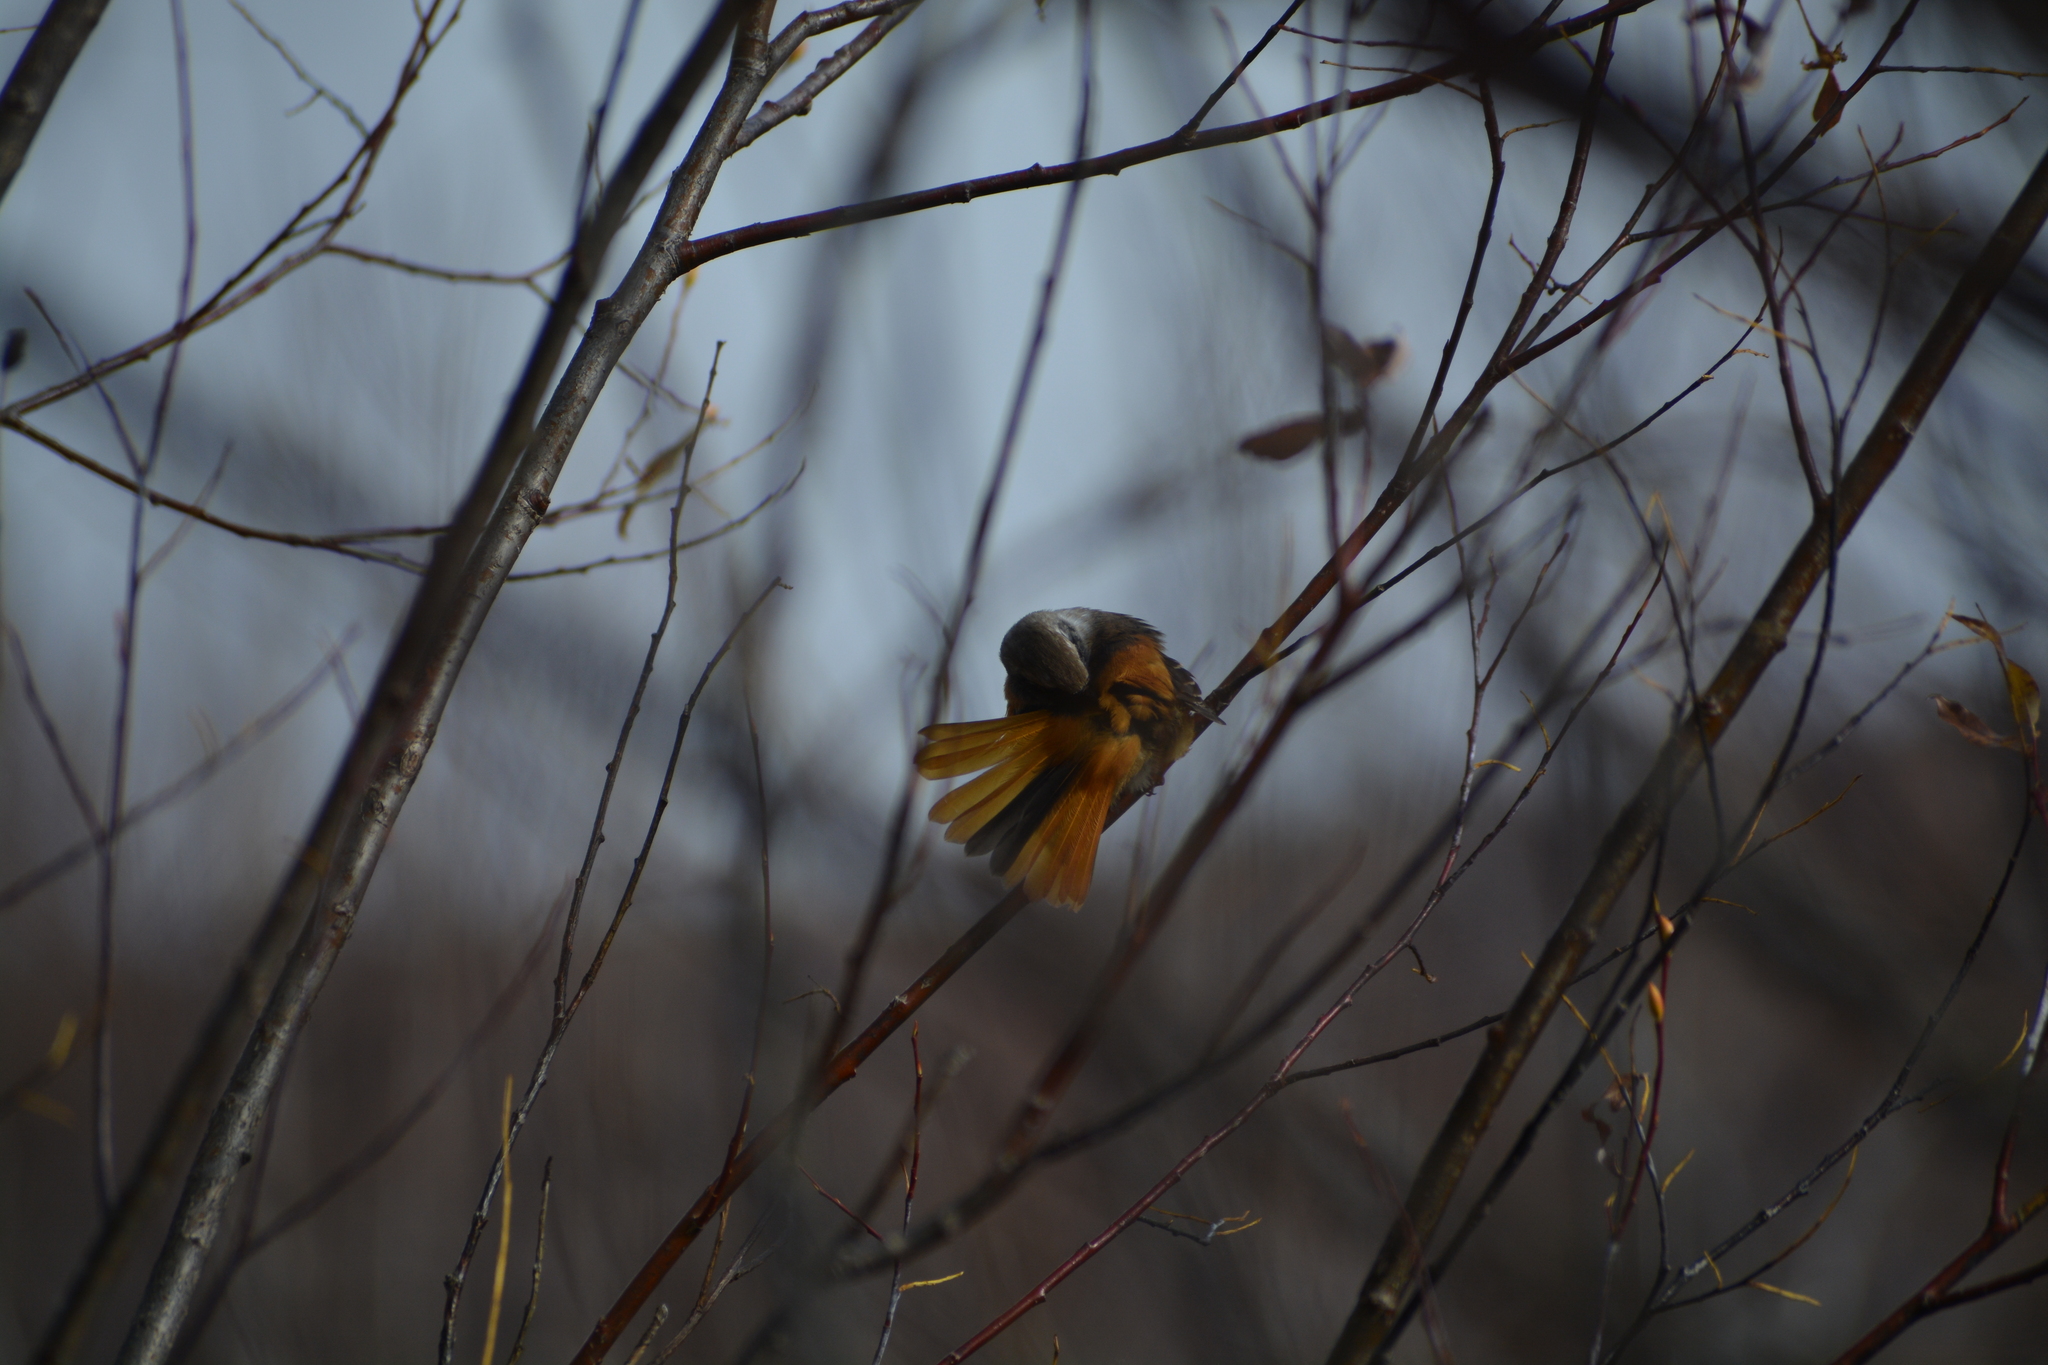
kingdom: Animalia
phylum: Chordata
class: Aves
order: Passeriformes
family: Muscicapidae
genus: Phoenicurus
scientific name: Phoenicurus auroreus
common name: Daurian redstart
